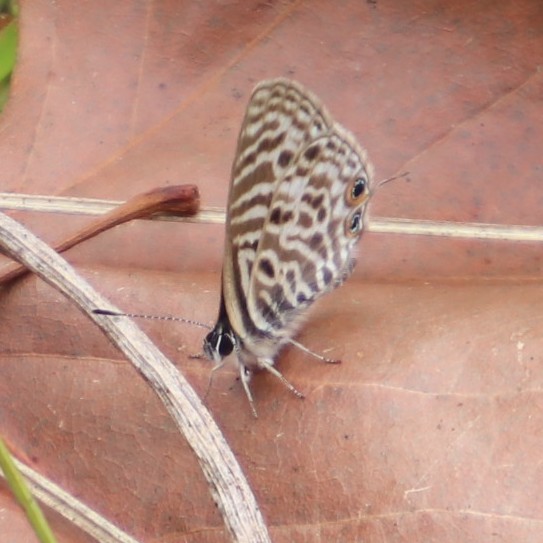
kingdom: Animalia
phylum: Arthropoda
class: Insecta
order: Lepidoptera
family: Lycaenidae
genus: Leptotes
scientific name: Leptotes
